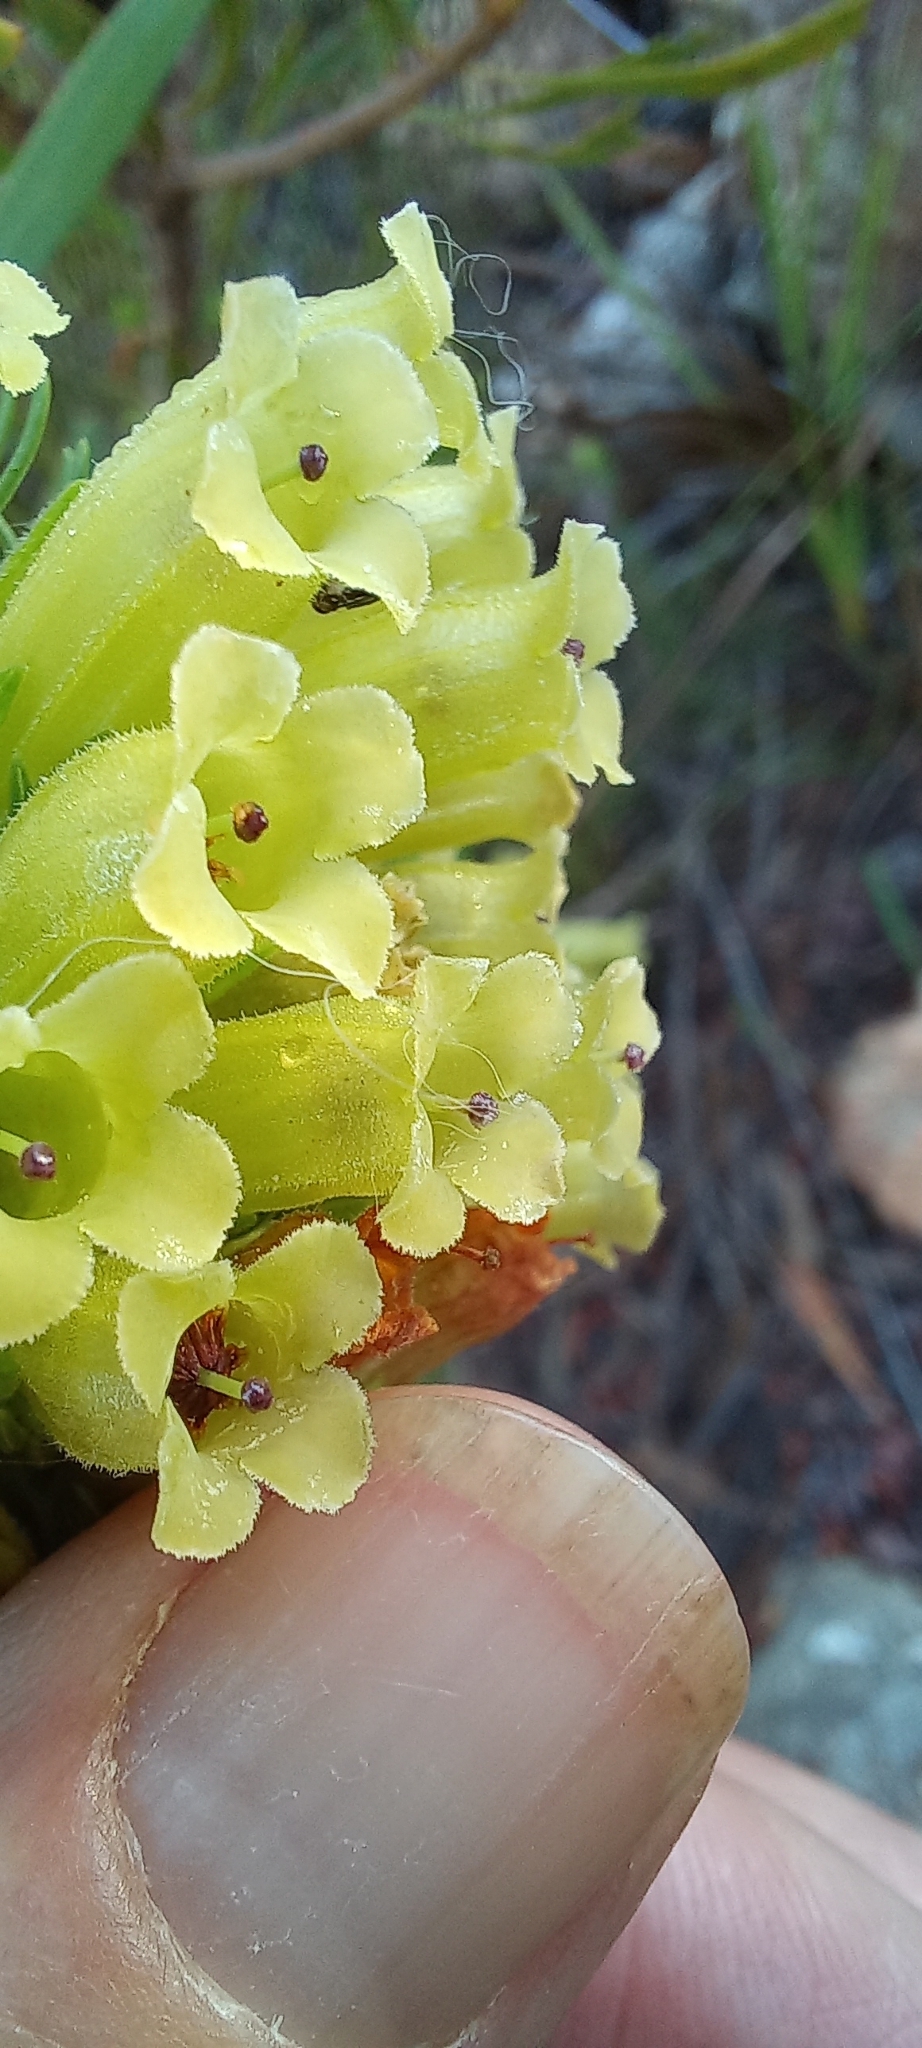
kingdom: Plantae
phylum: Tracheophyta
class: Magnoliopsida
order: Ericales
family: Ericaceae
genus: Erica
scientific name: Erica viscaria
